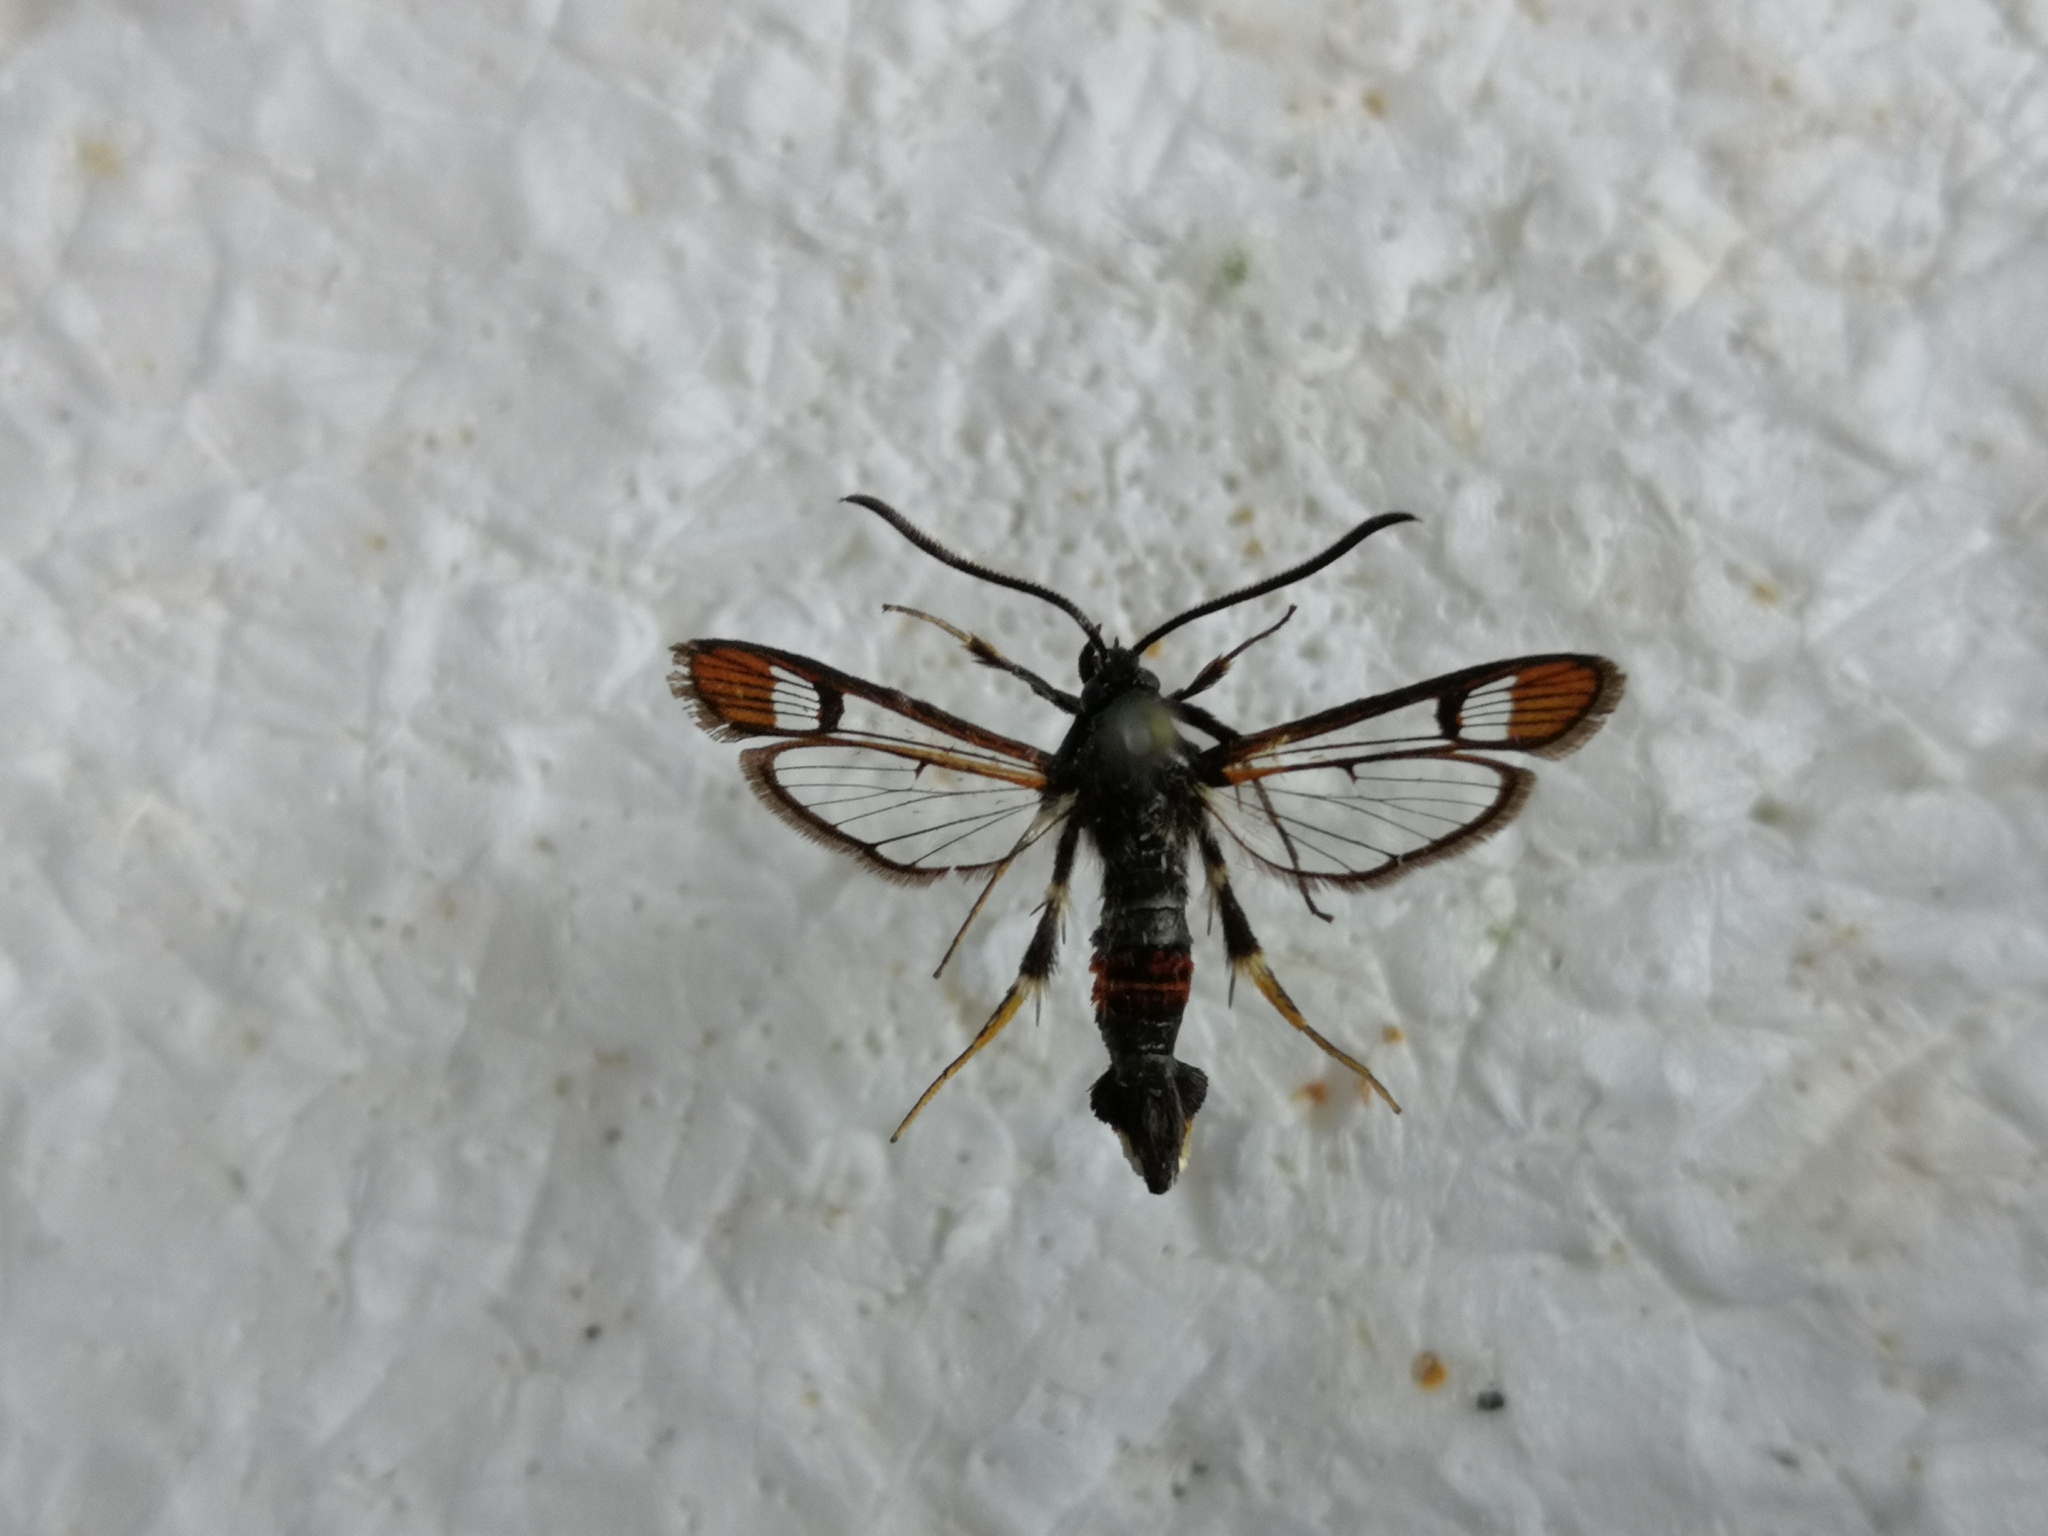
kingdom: Animalia
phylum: Arthropoda
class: Insecta
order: Lepidoptera
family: Sesiidae
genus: Synanthedon
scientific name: Synanthedon formicaeformis
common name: Red-tipped clearwing
